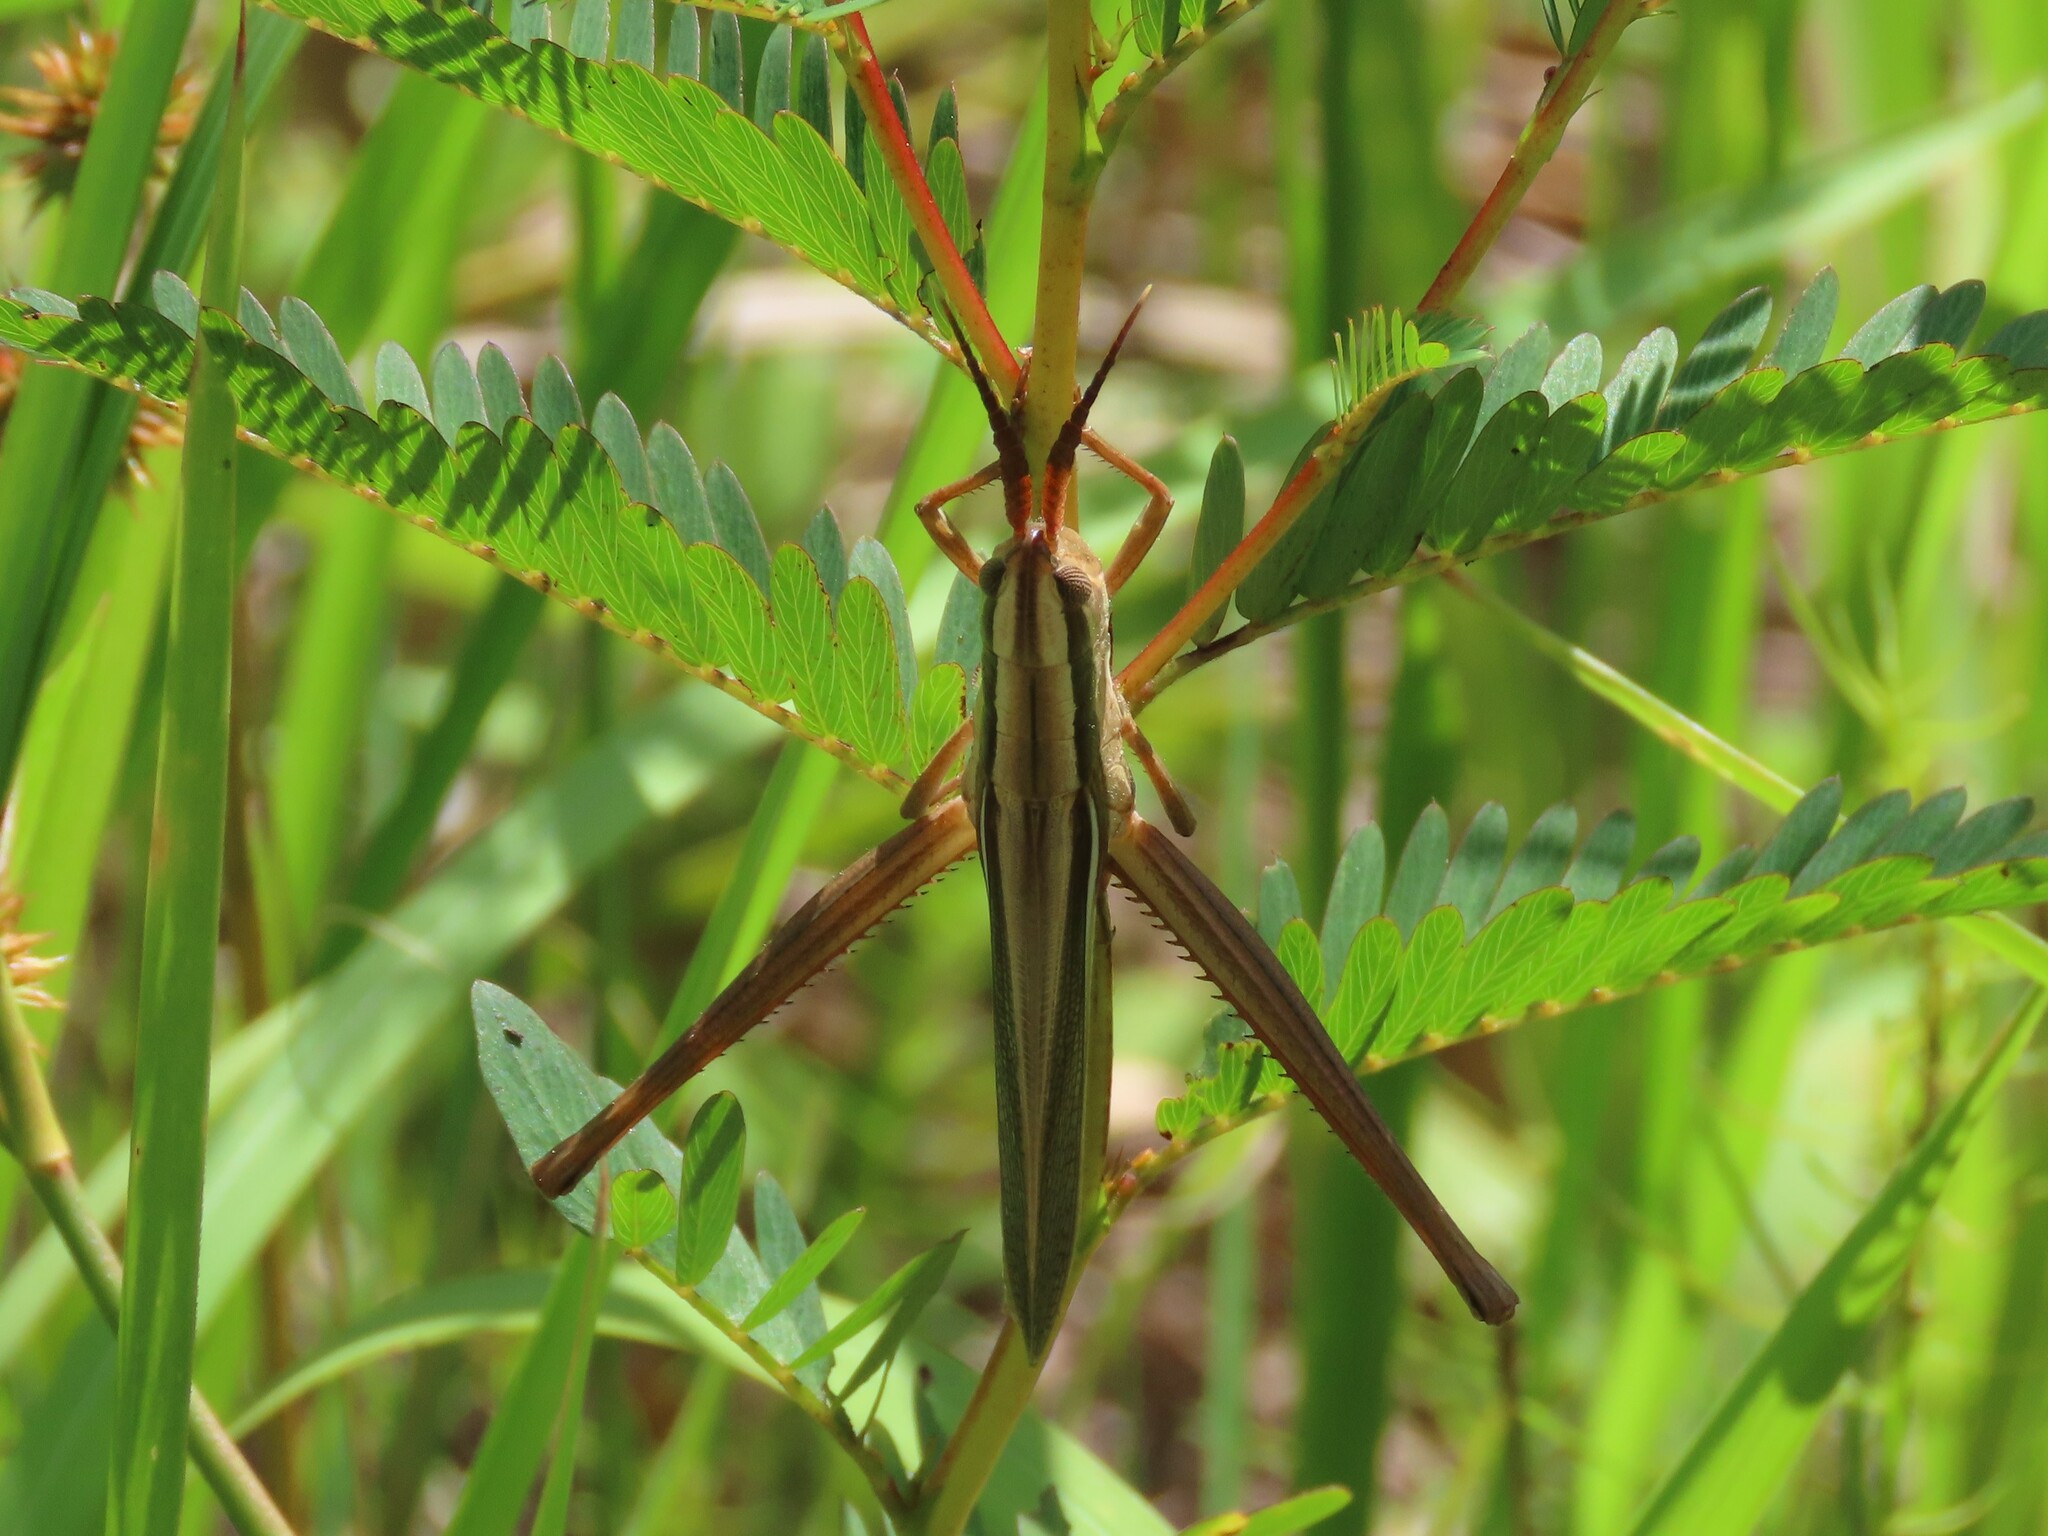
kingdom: Animalia
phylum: Arthropoda
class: Insecta
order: Orthoptera
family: Acrididae
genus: Mermiria
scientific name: Mermiria intertexta
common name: Eastern mermiria grasshopper
